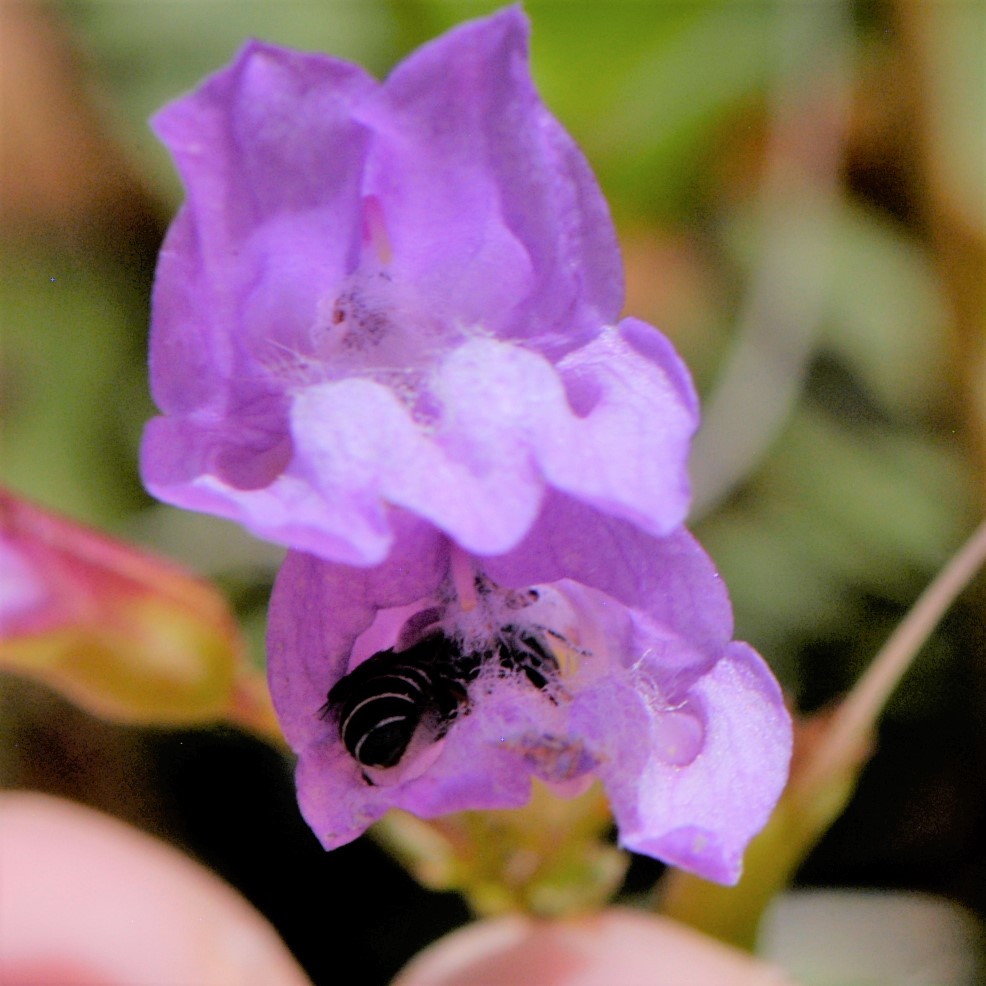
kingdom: Animalia
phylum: Arthropoda
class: Insecta
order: Hymenoptera
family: Megachilidae
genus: Megachile
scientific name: Megachile
